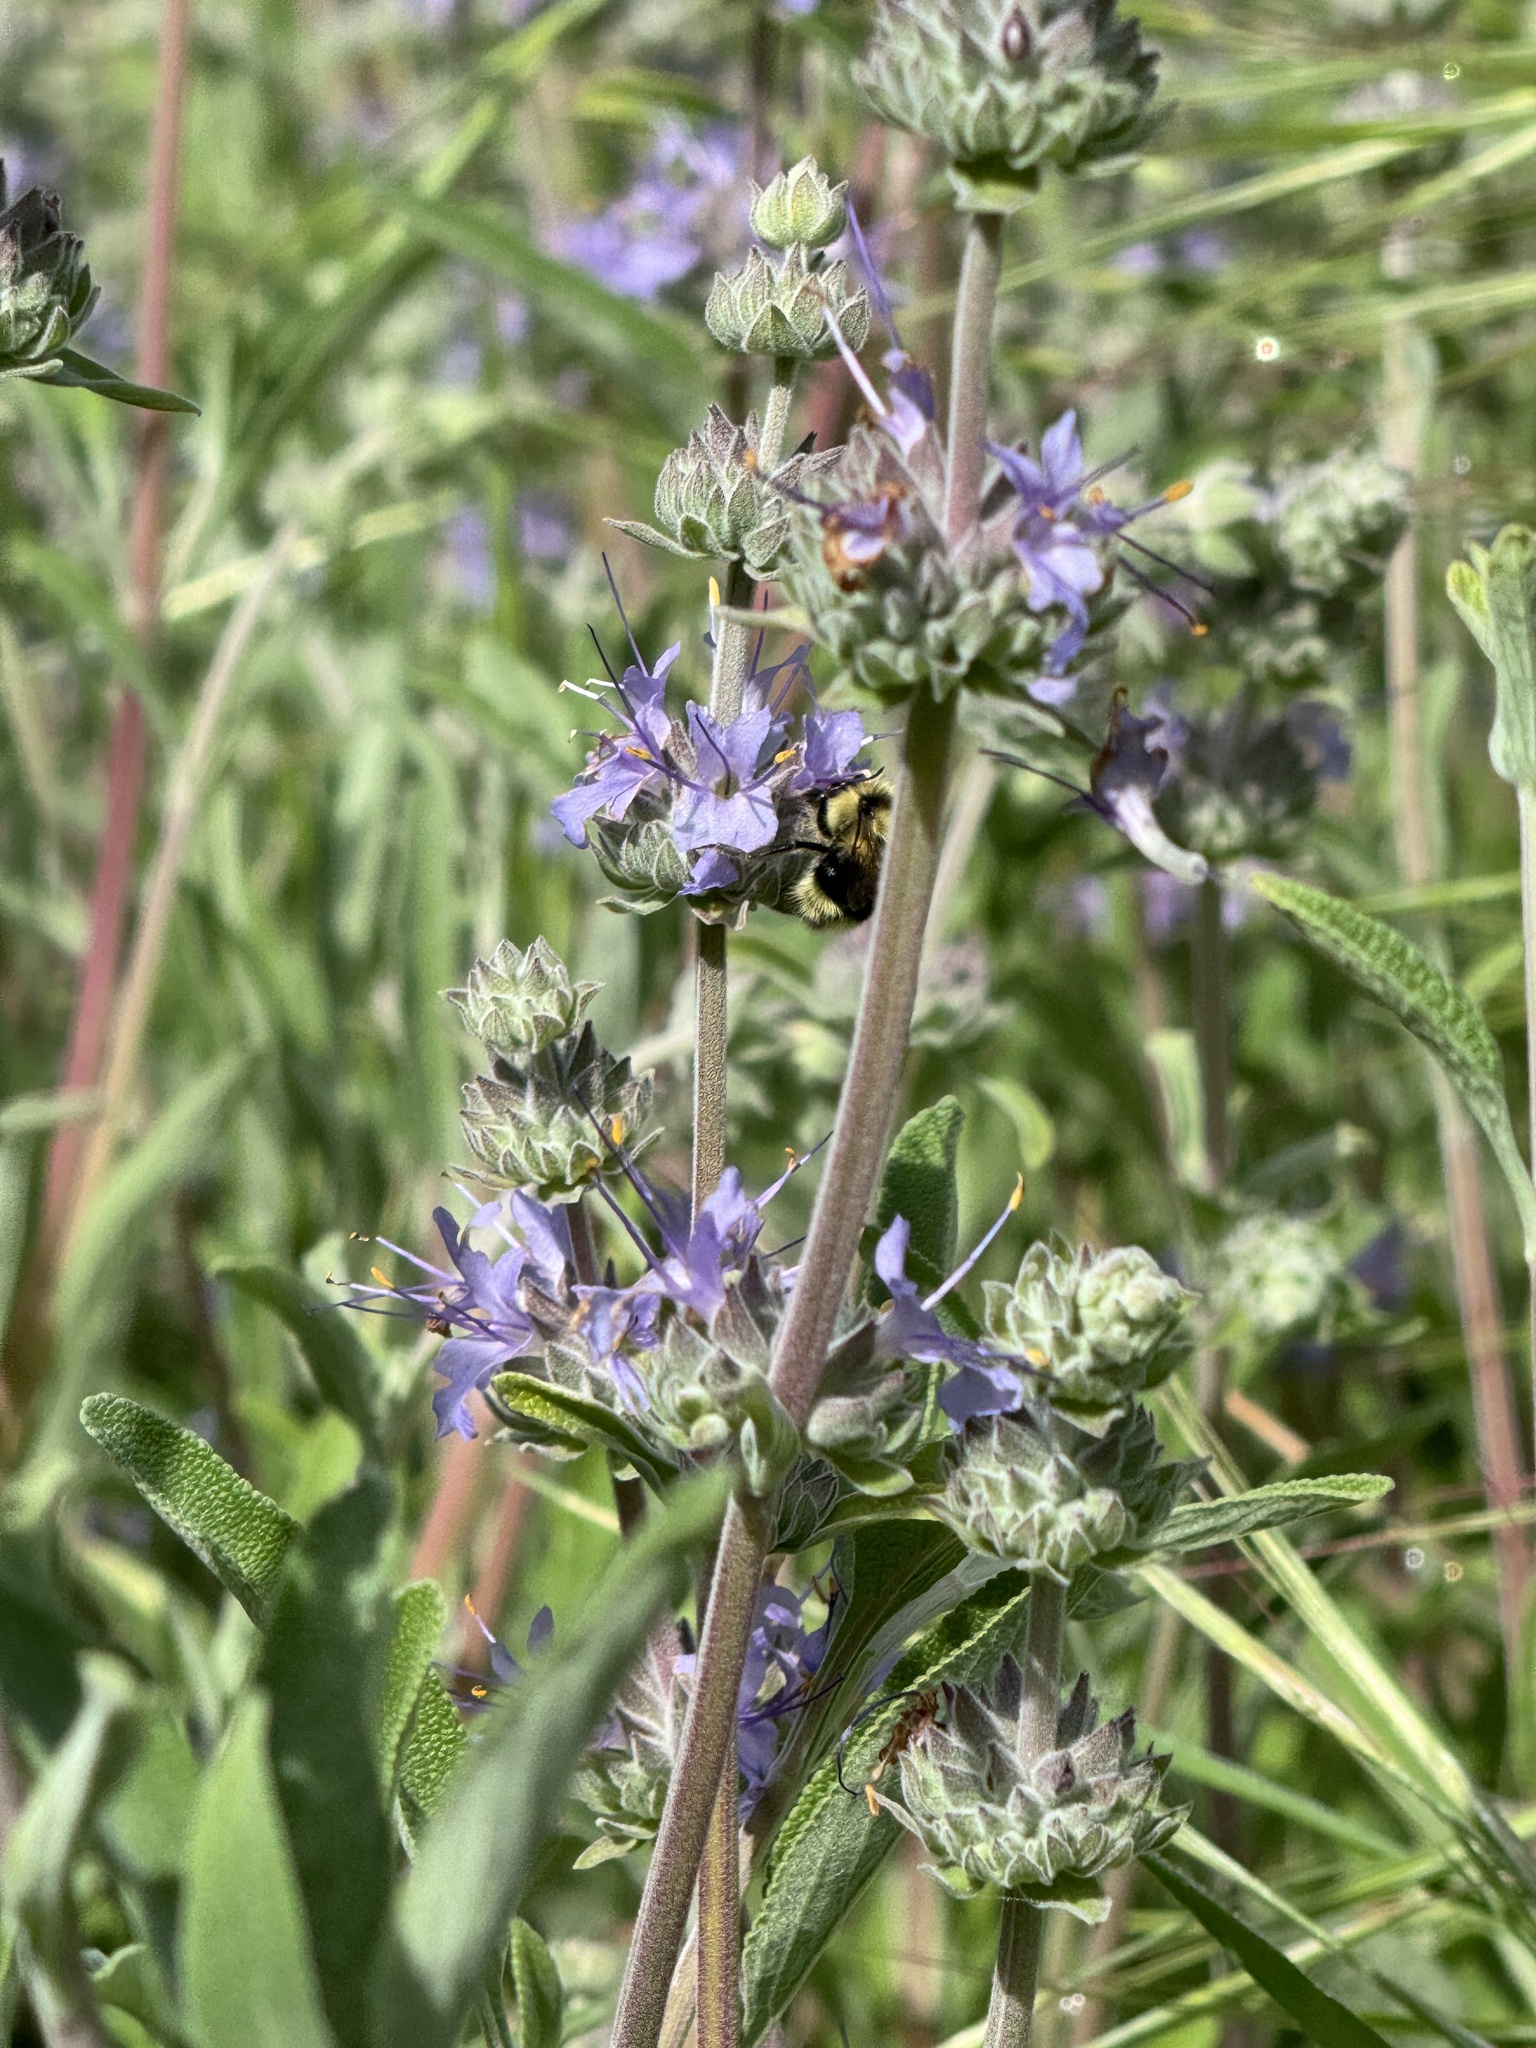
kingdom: Animalia
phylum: Arthropoda
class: Insecta
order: Hymenoptera
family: Apidae
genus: Bombus
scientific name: Bombus melanopygus
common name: Black tail bumble bee
